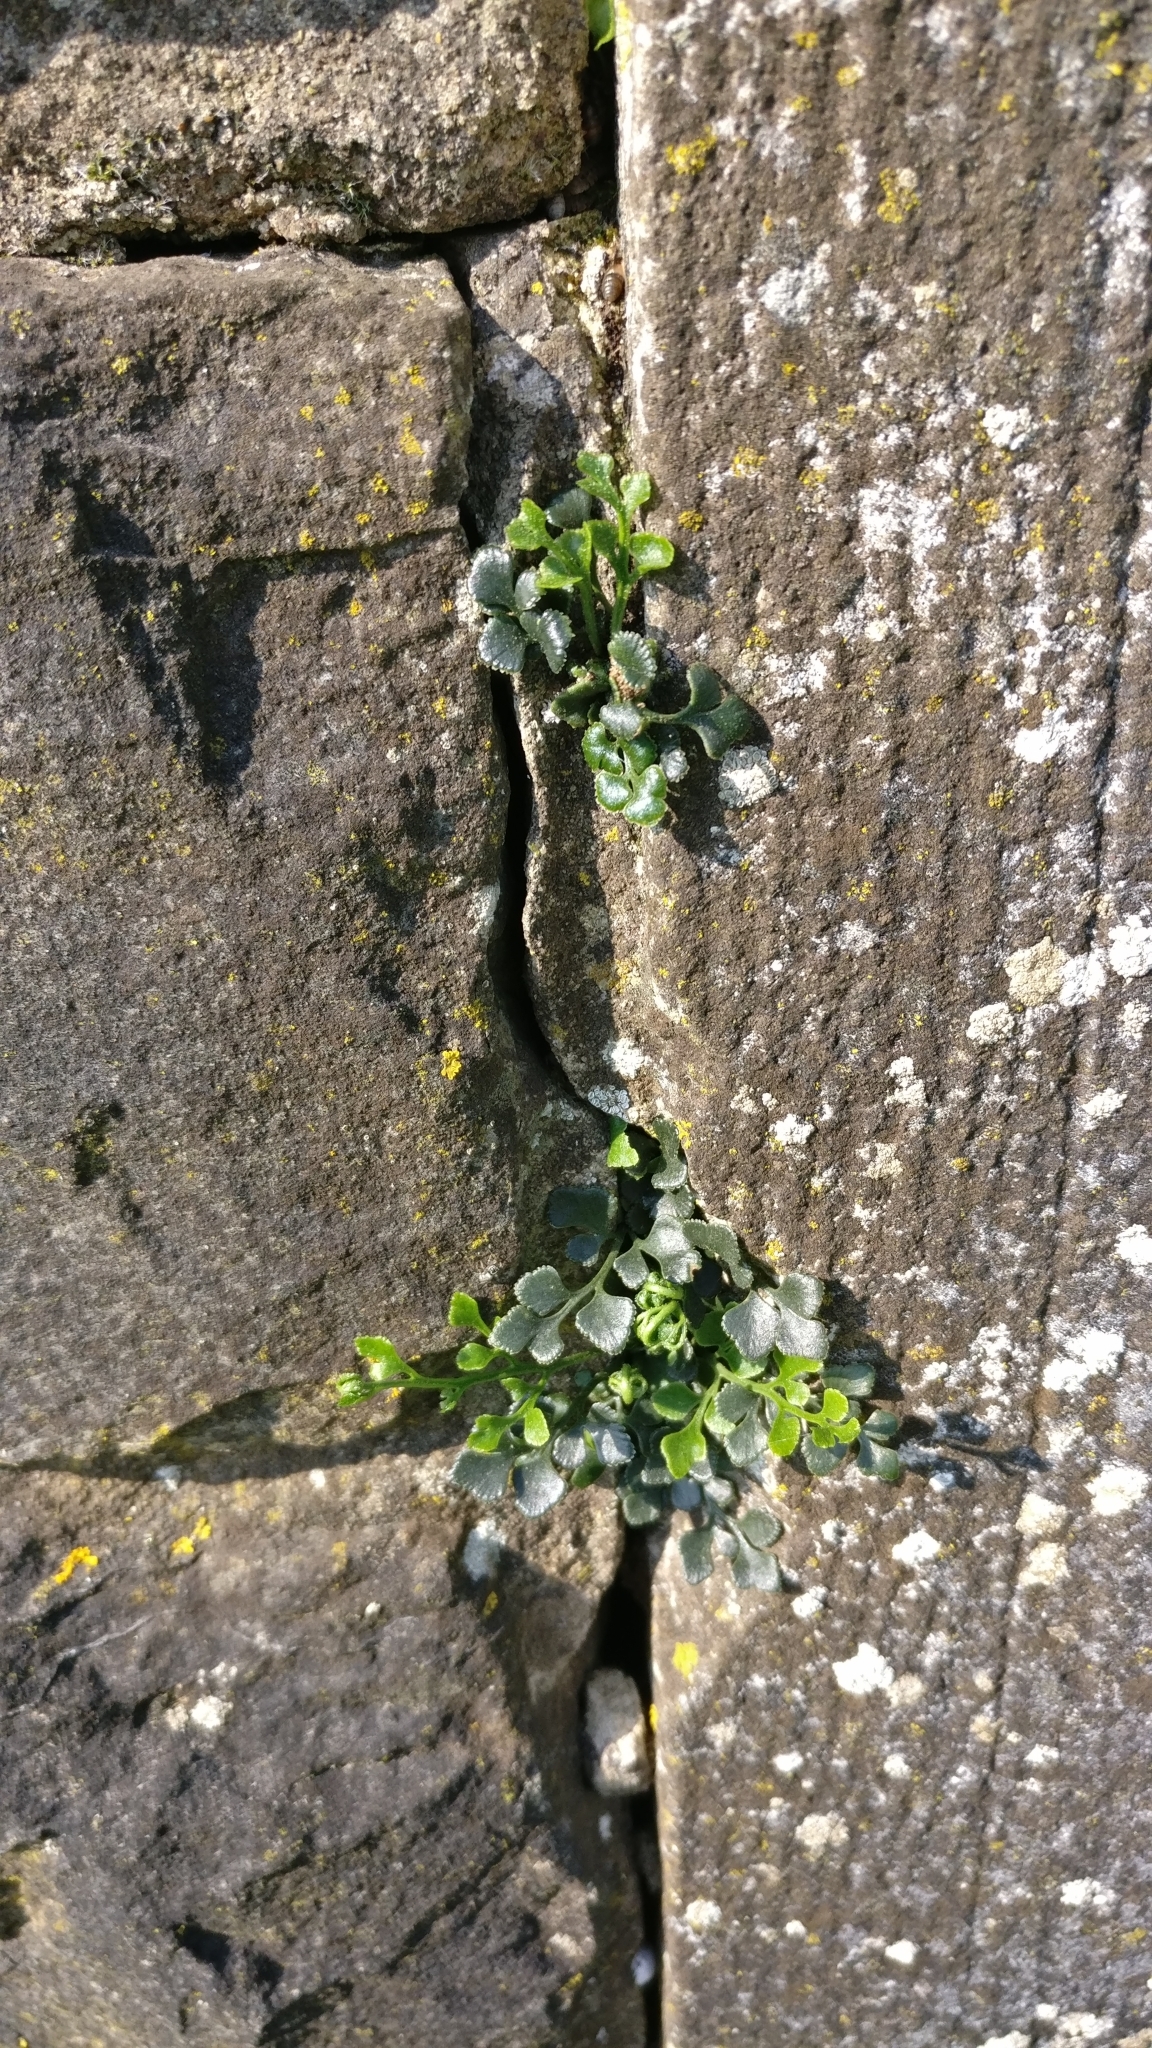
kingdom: Plantae
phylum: Tracheophyta
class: Polypodiopsida
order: Polypodiales
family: Aspleniaceae
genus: Asplenium
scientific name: Asplenium ruta-muraria
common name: Wall-rue
